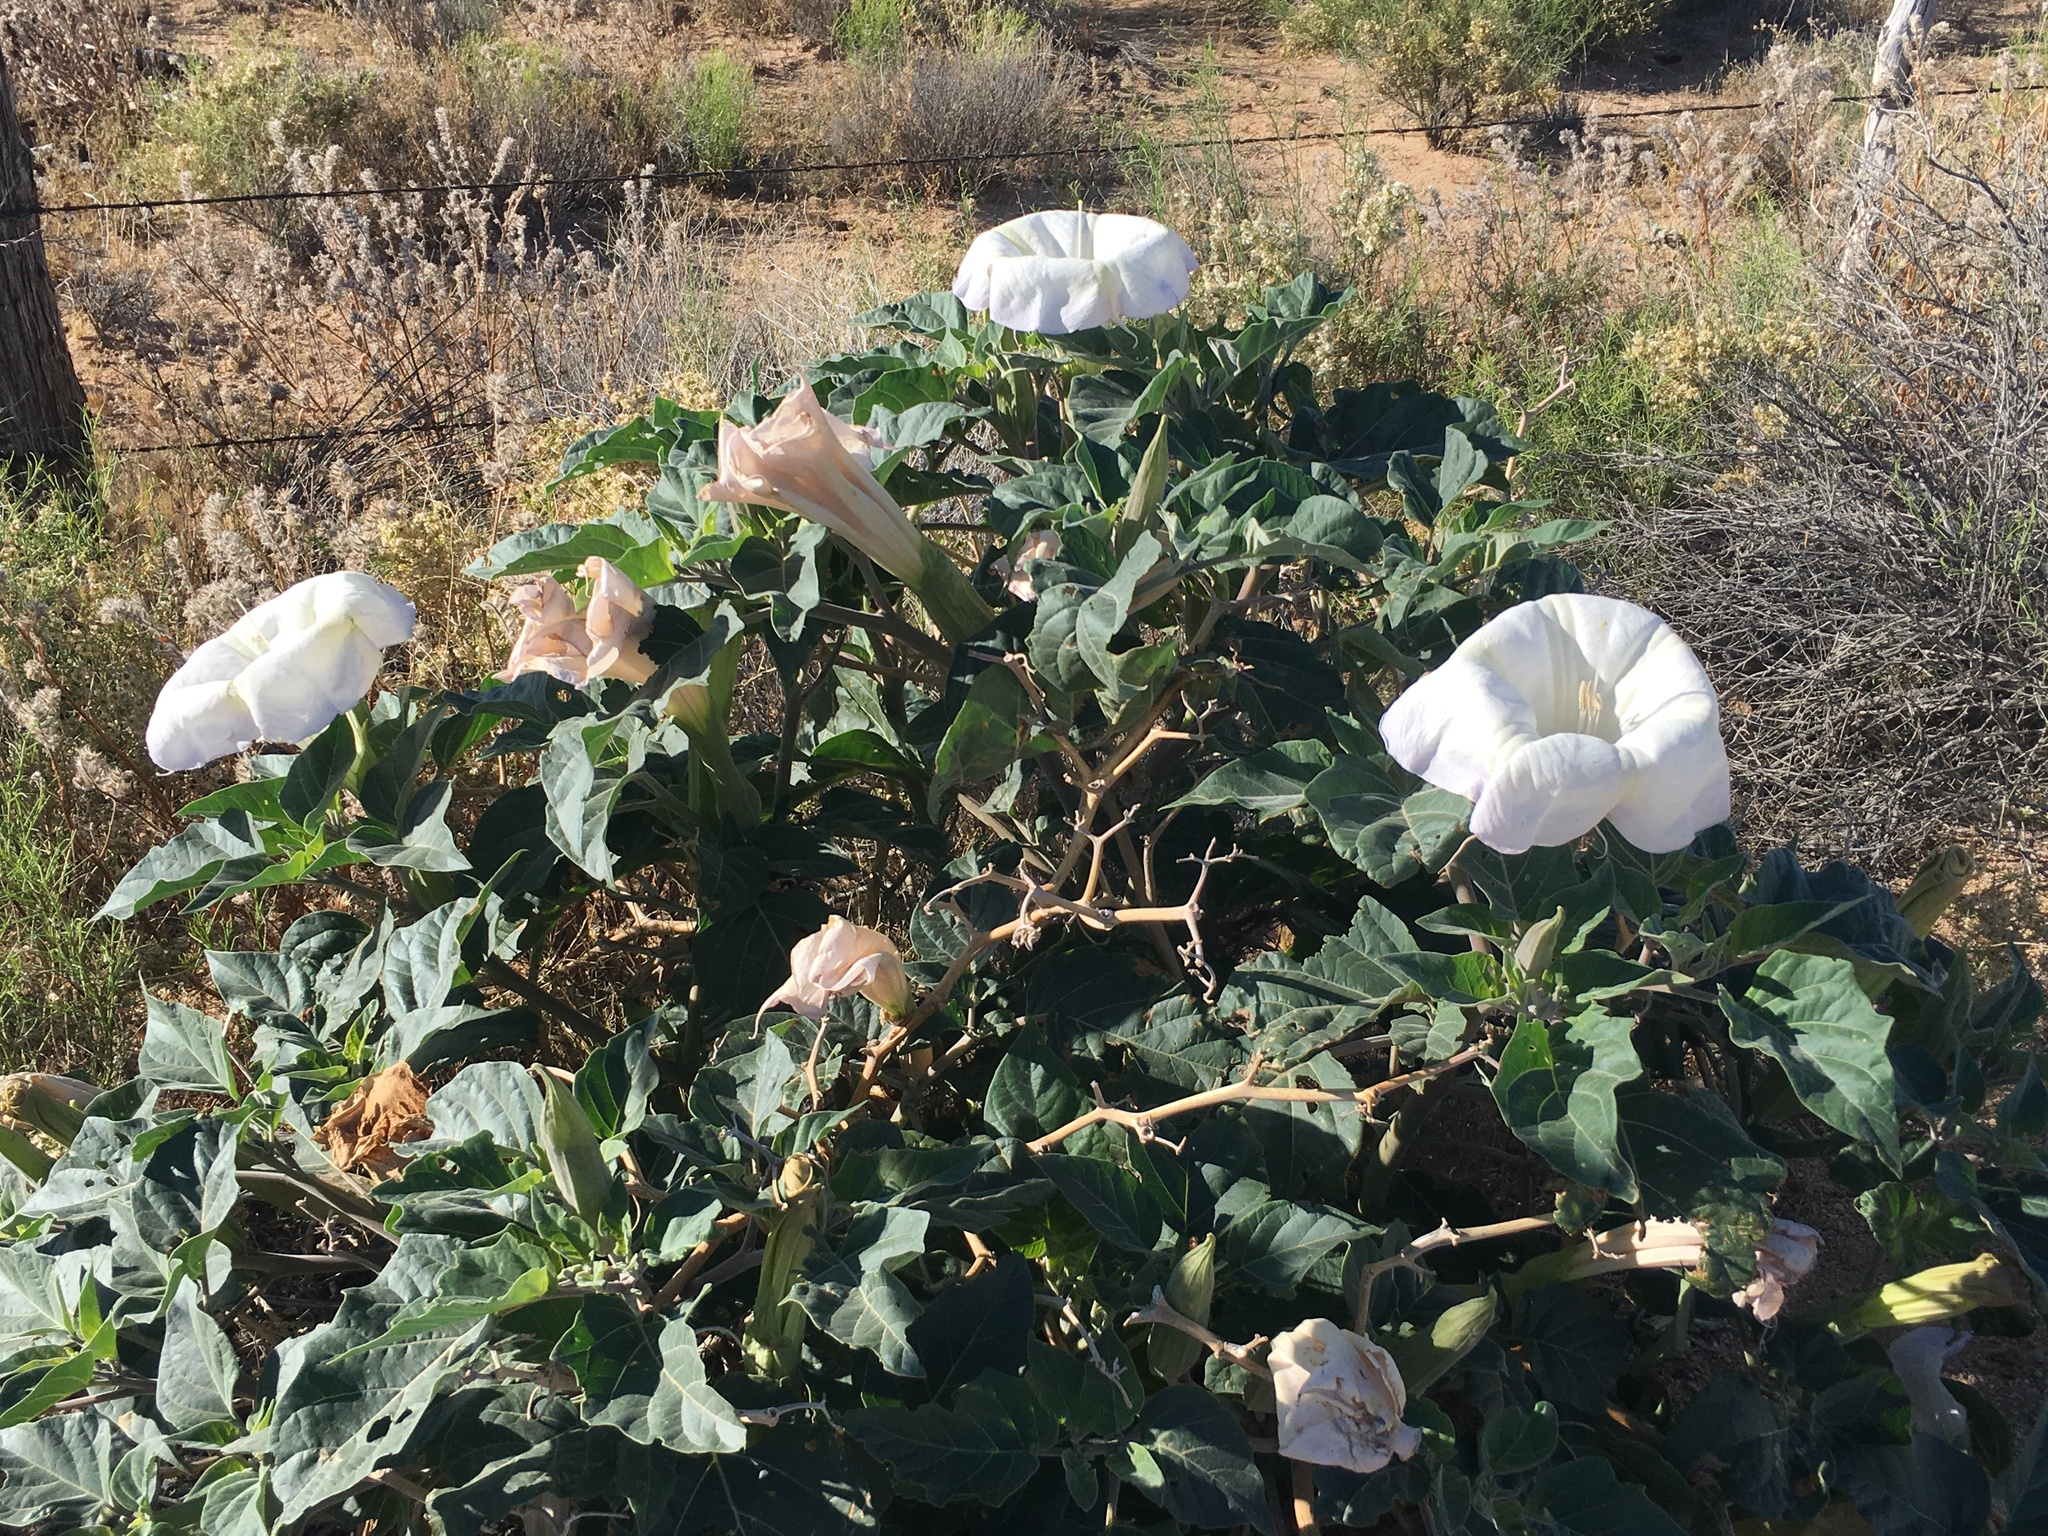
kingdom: Plantae
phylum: Tracheophyta
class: Magnoliopsida
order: Solanales
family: Solanaceae
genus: Datura
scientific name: Datura wrightii
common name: Sacred thorn-apple
